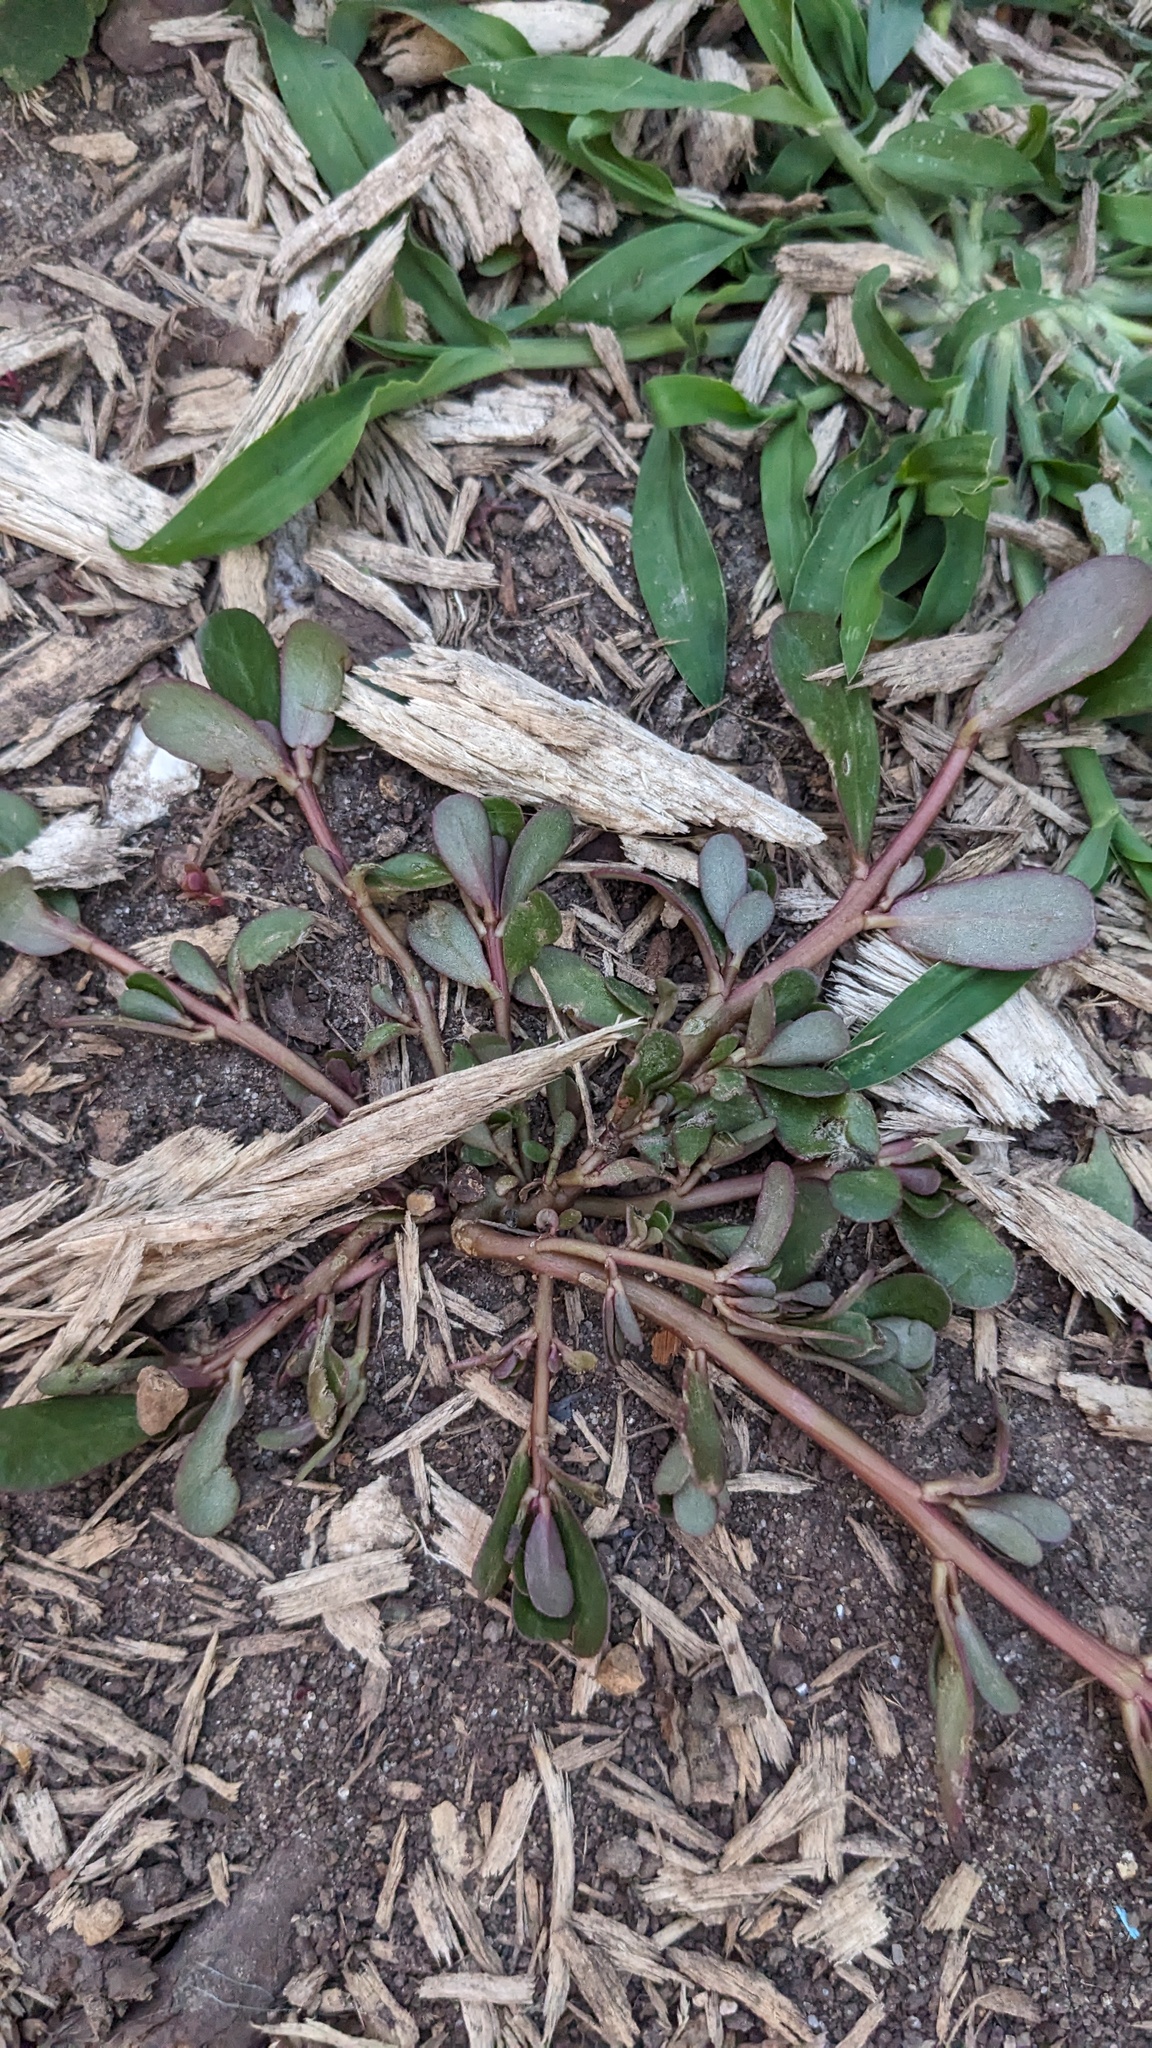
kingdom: Plantae
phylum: Tracheophyta
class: Magnoliopsida
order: Caryophyllales
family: Portulacaceae
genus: Portulaca
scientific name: Portulaca oleracea
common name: Common purslane
